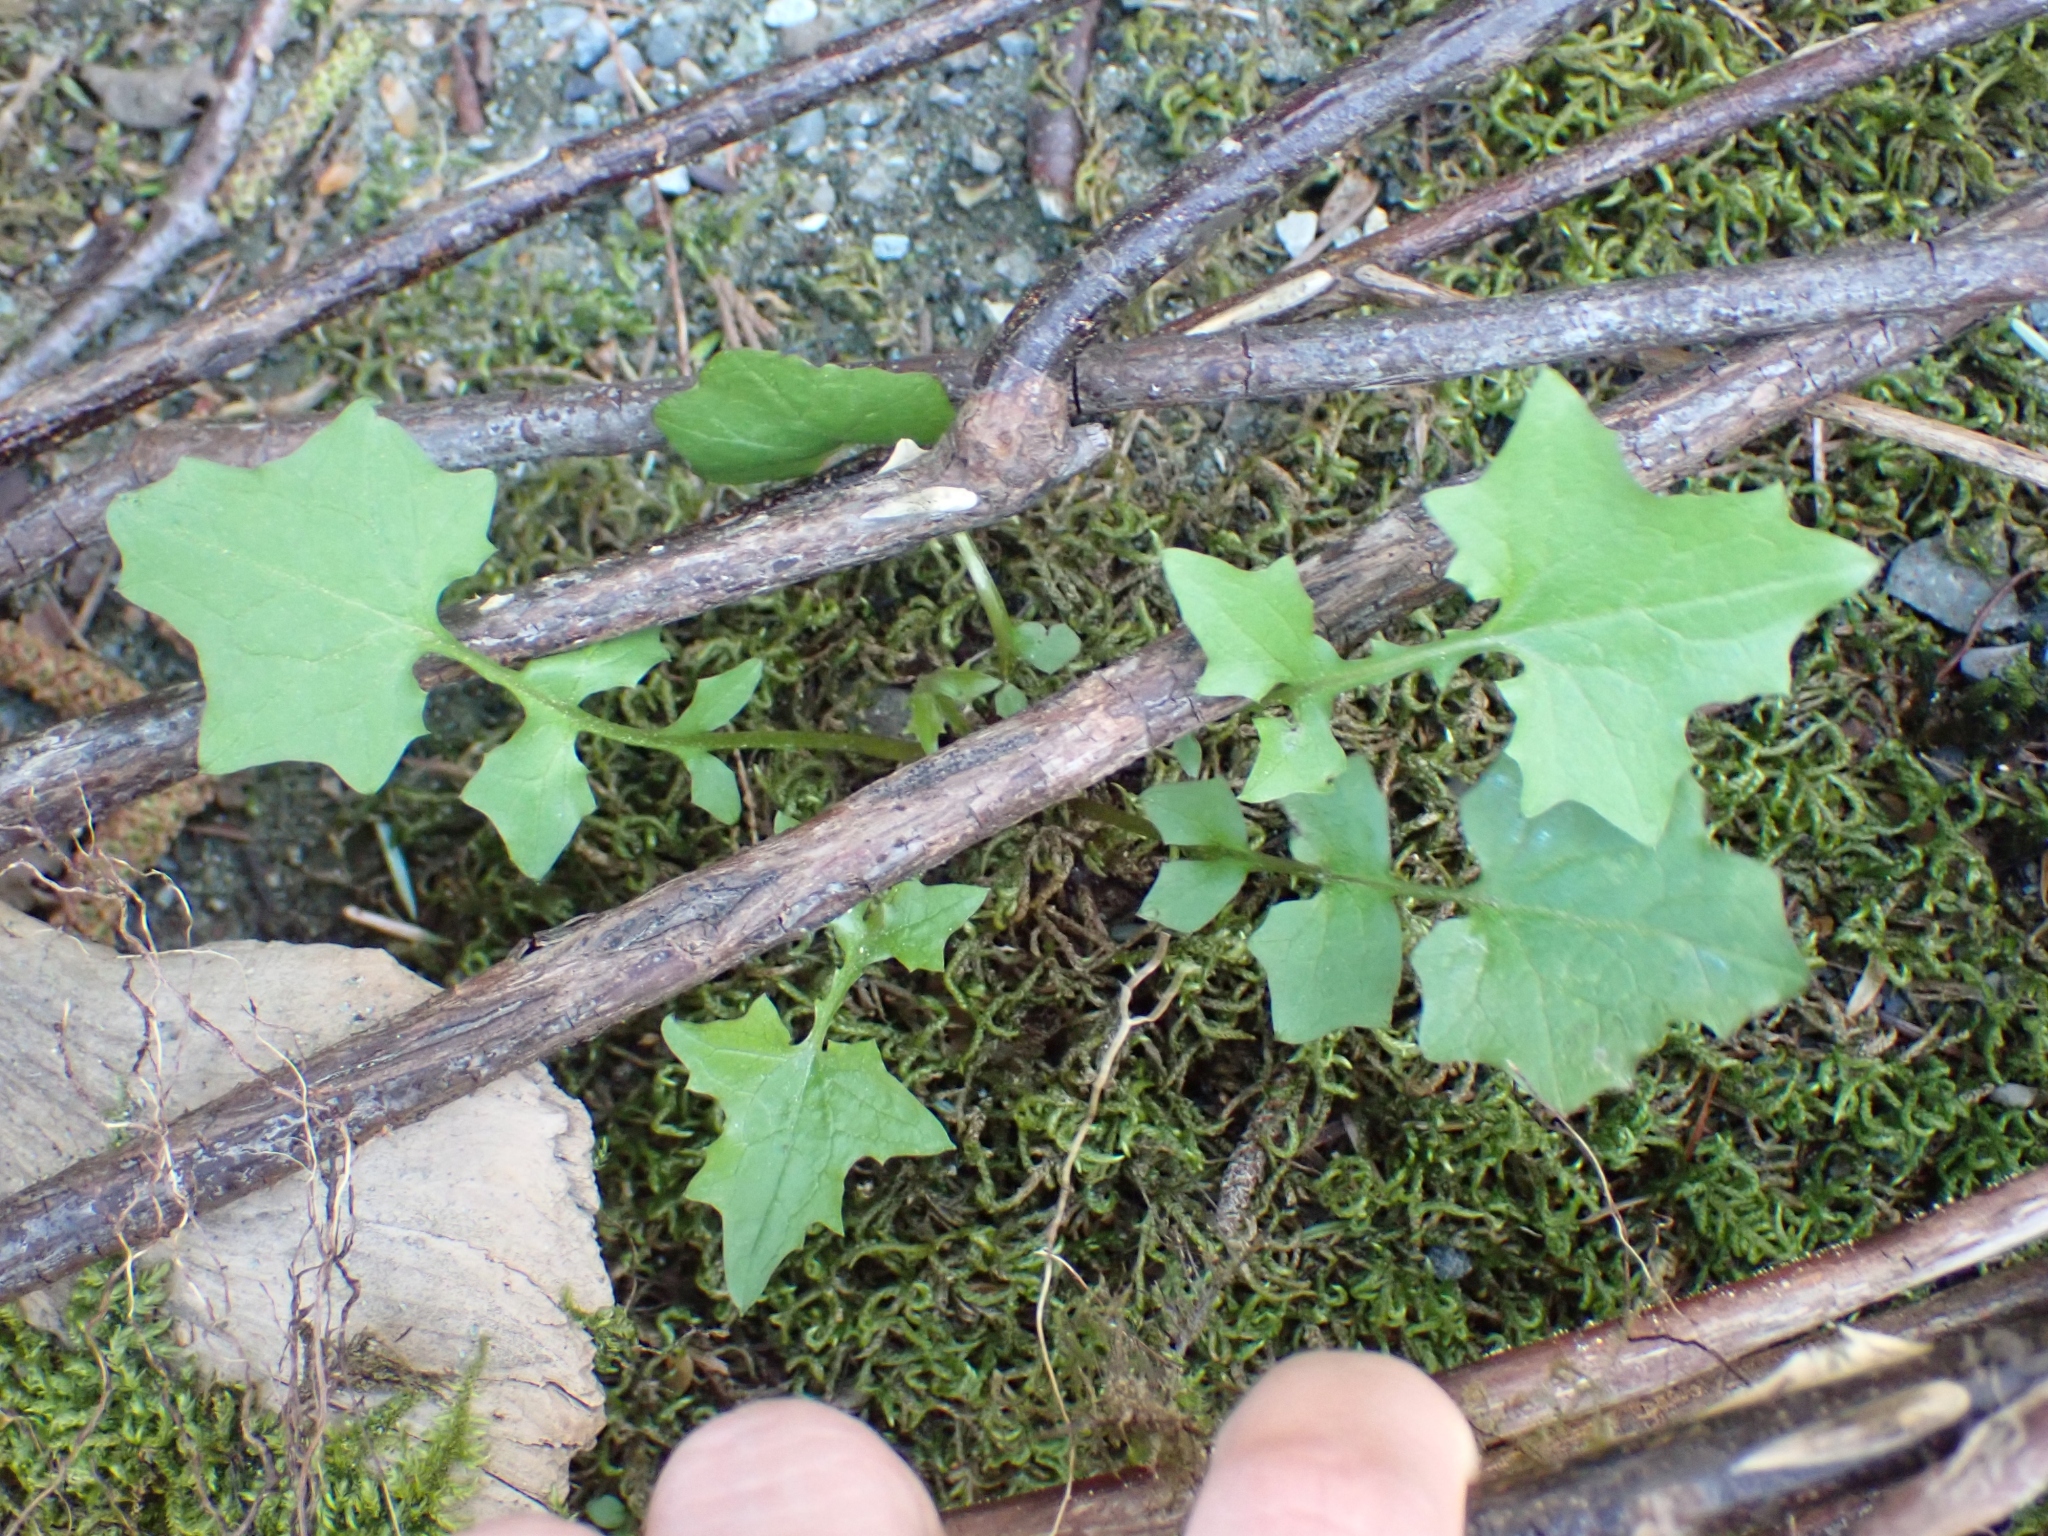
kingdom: Plantae
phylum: Tracheophyta
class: Magnoliopsida
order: Asterales
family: Asteraceae
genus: Mycelis
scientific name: Mycelis muralis
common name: Wall lettuce
